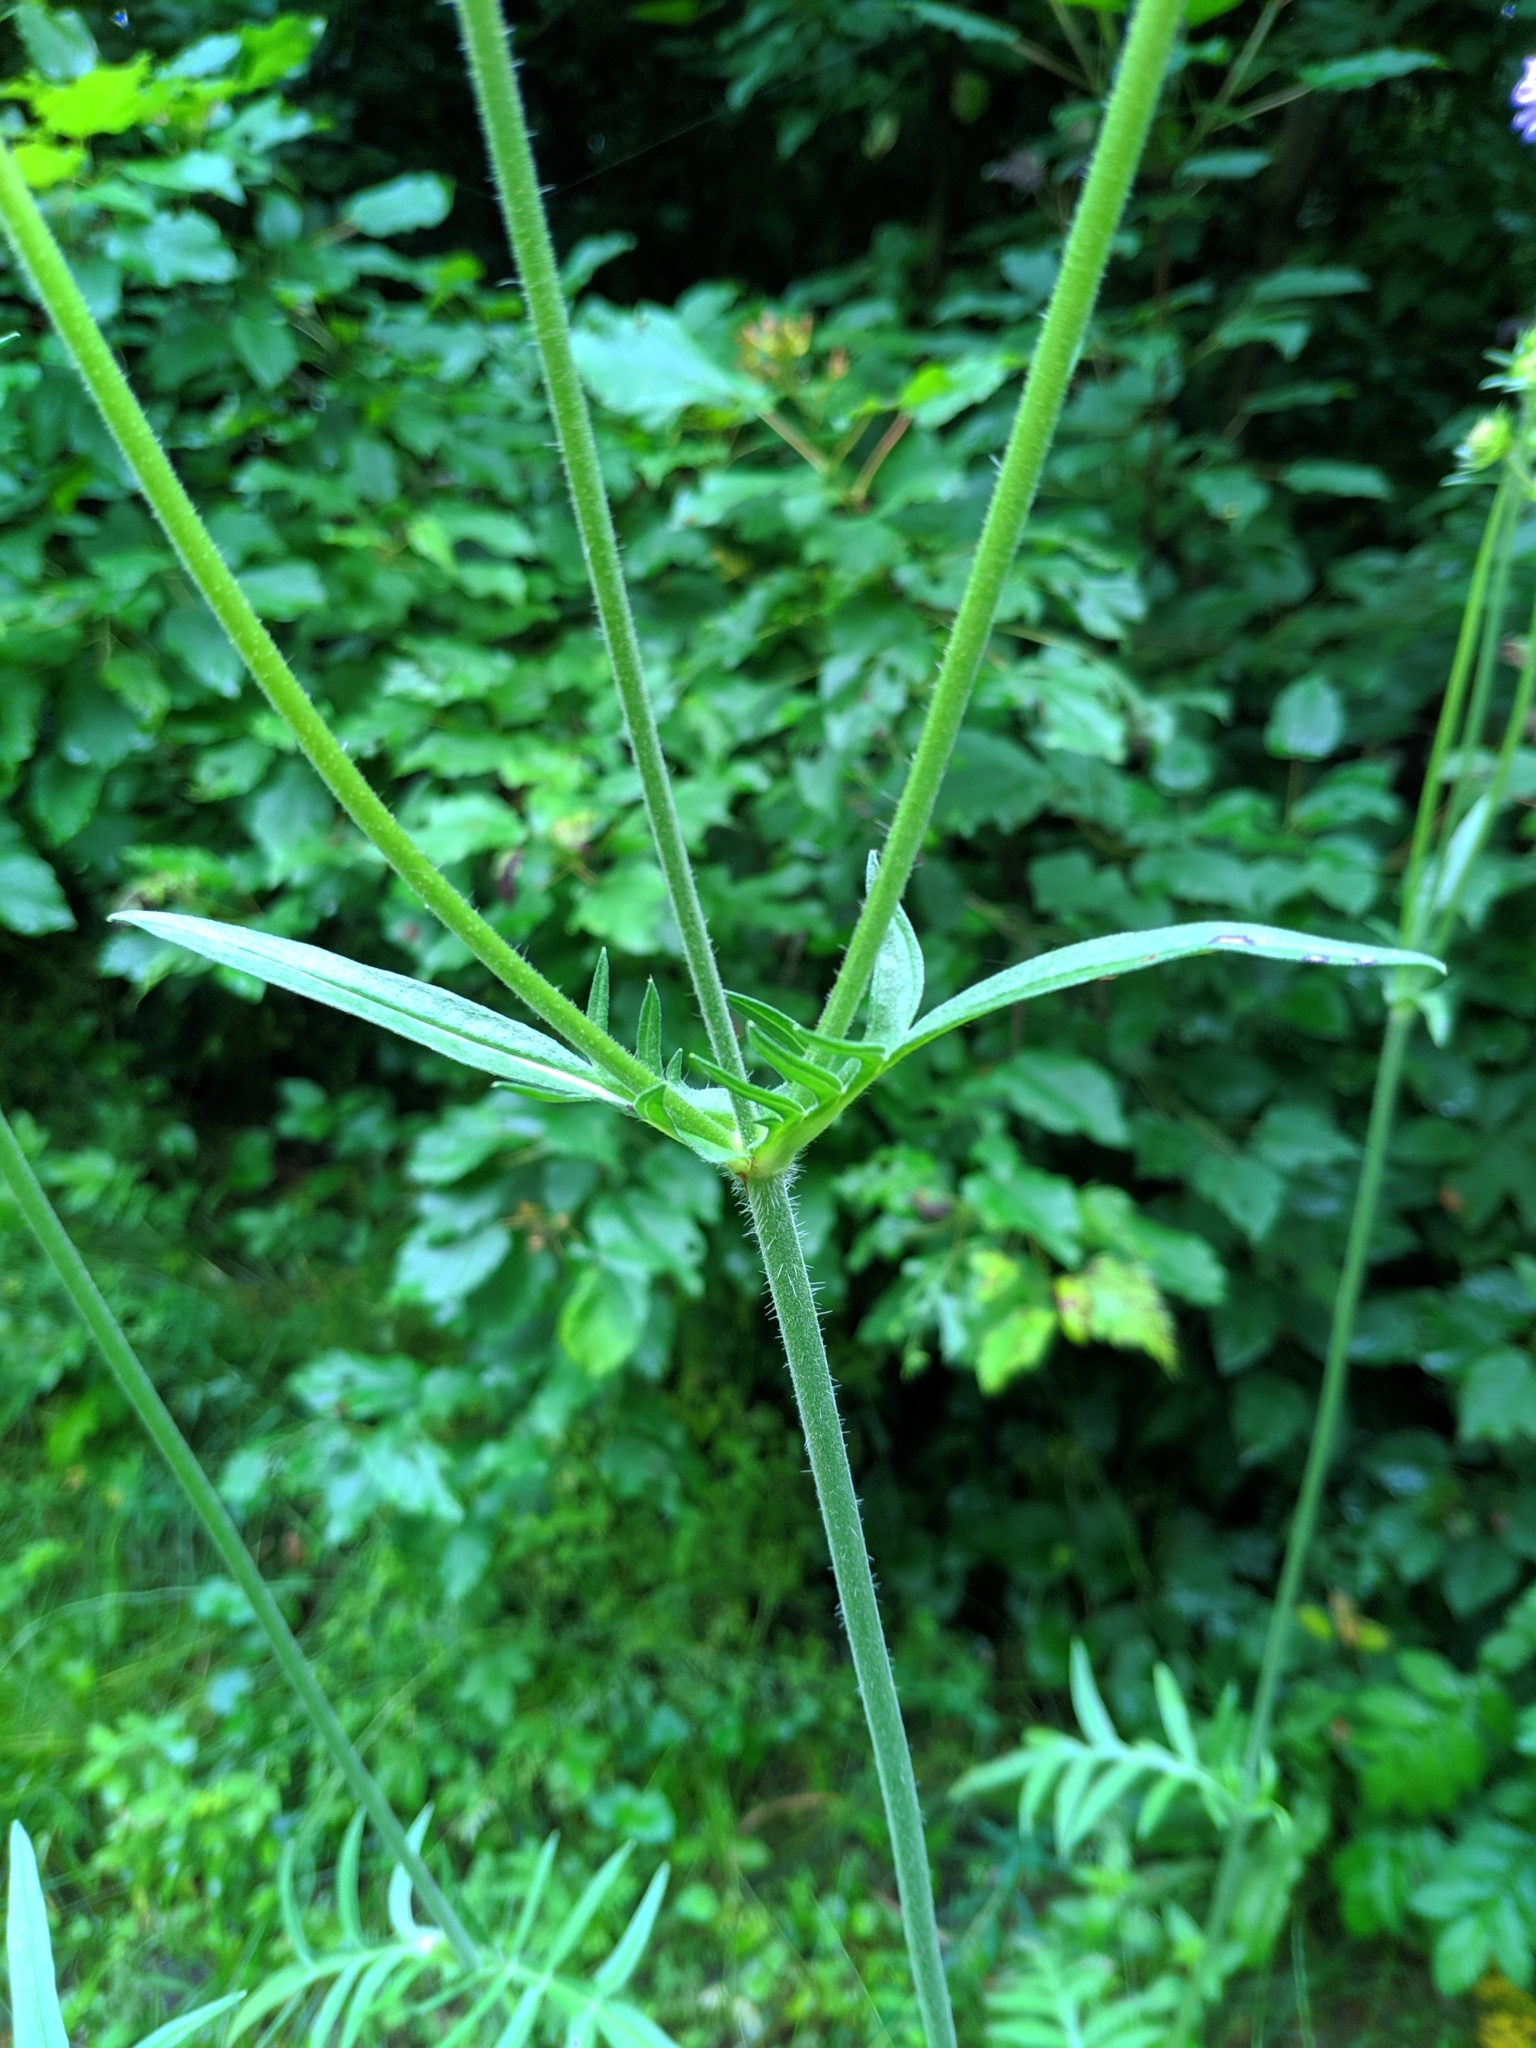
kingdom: Plantae
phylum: Tracheophyta
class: Magnoliopsida
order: Dipsacales
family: Caprifoliaceae
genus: Knautia
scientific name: Knautia arvensis
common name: Field scabiosa
